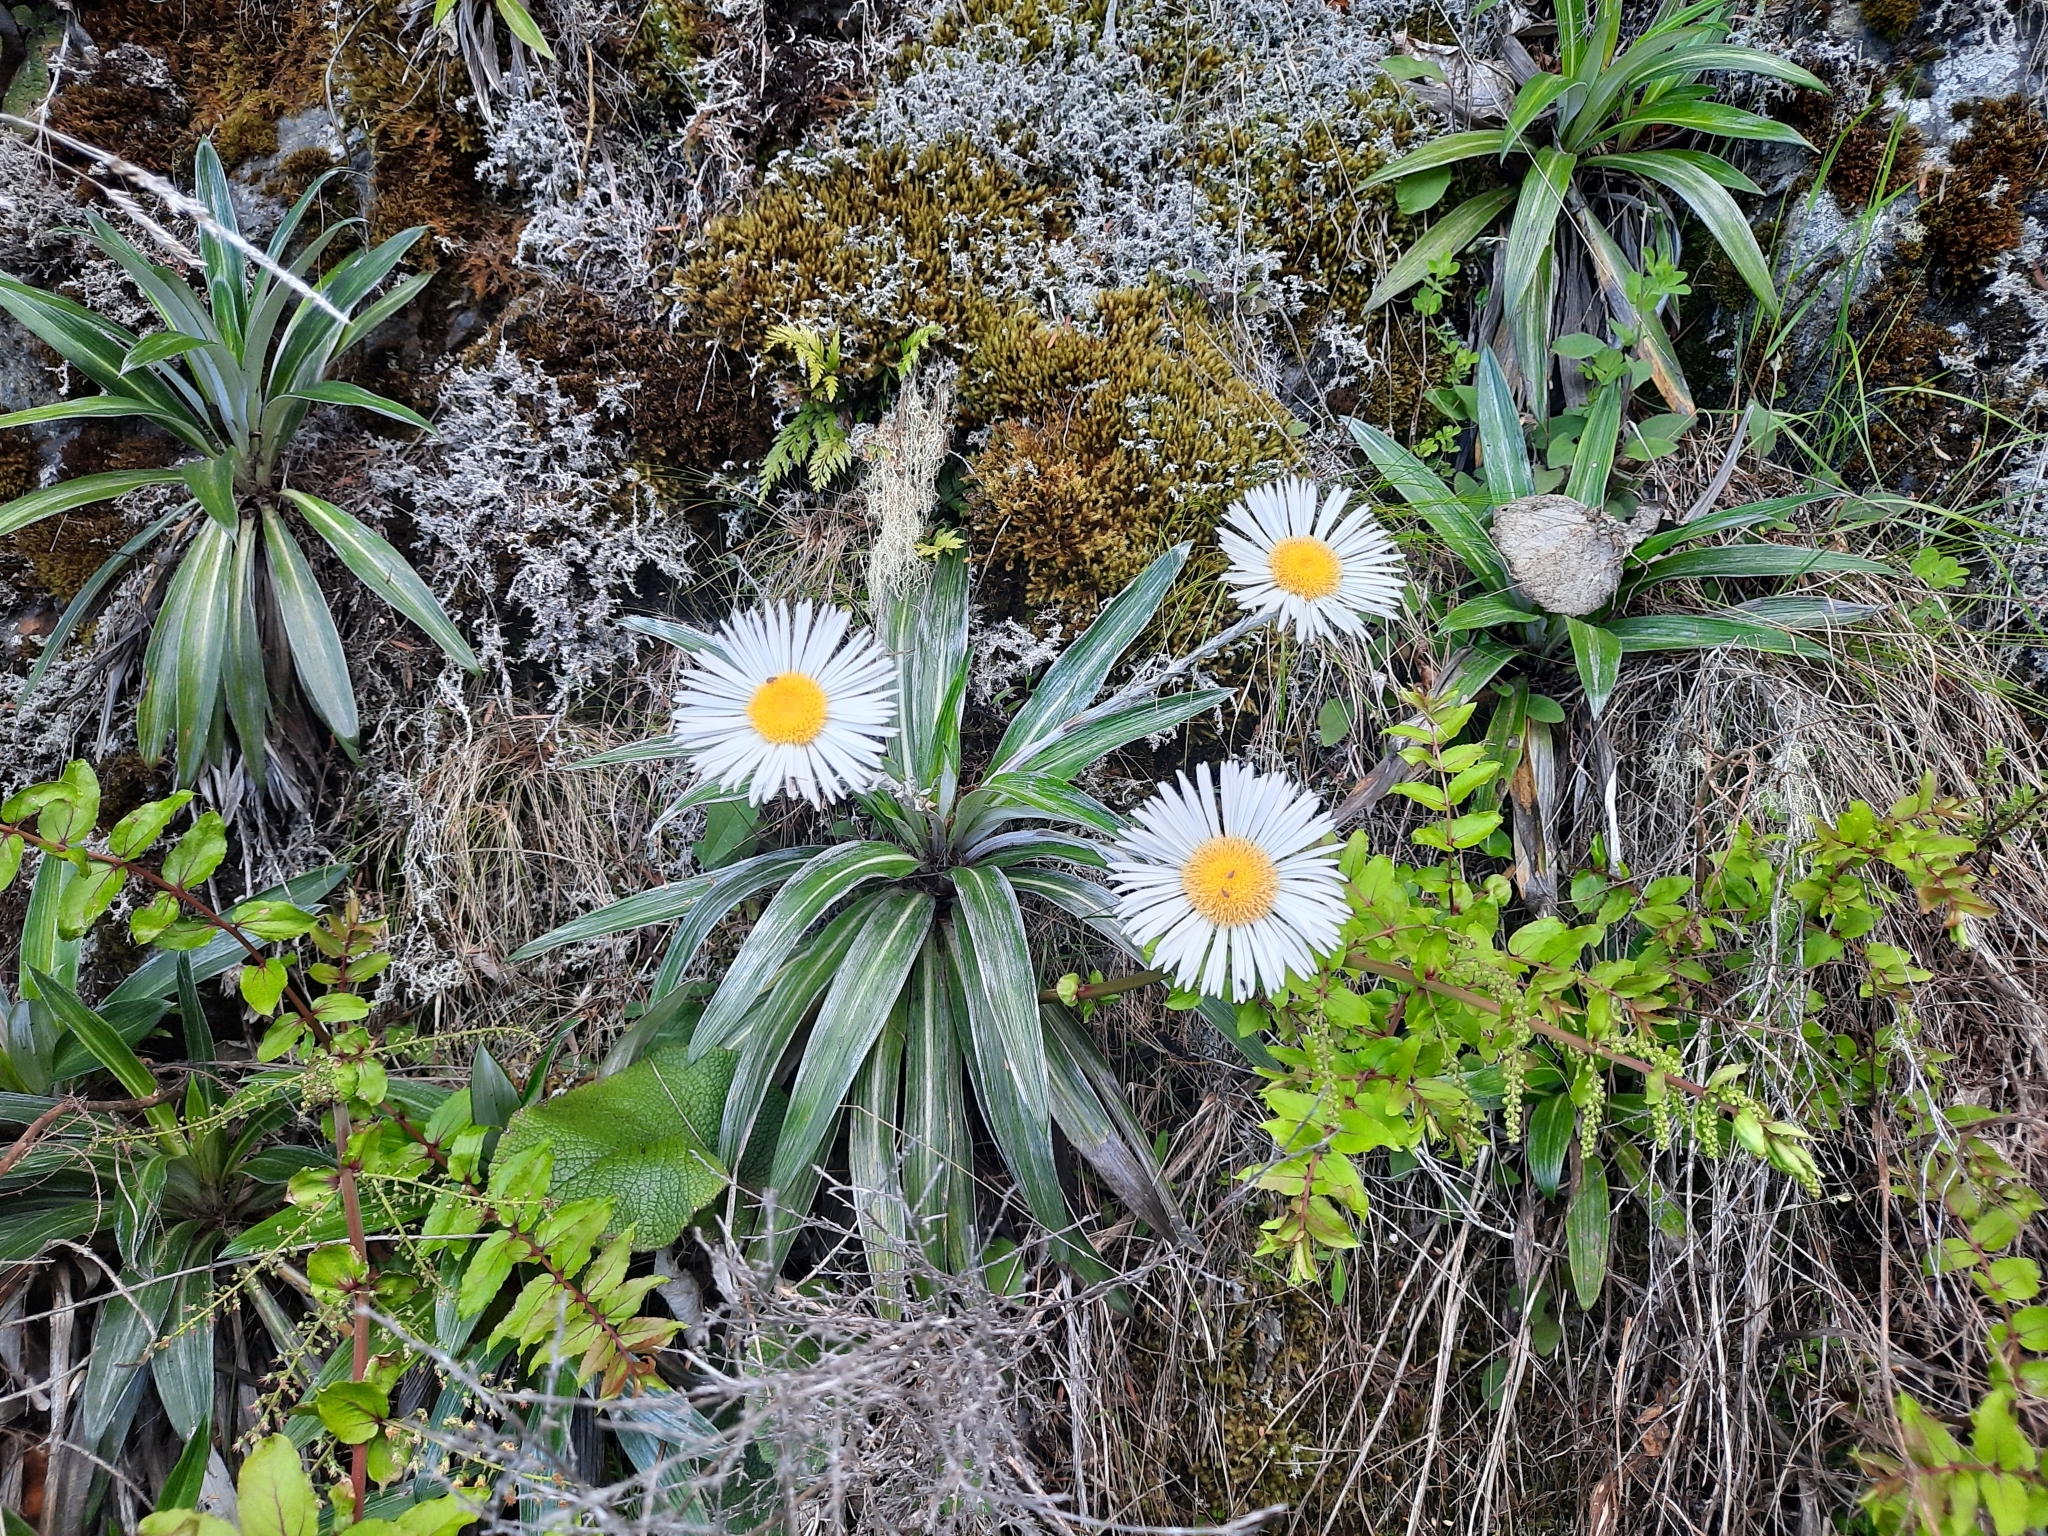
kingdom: Plantae
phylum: Tracheophyta
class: Magnoliopsida
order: Asterales
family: Asteraceae
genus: Celmisia
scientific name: Celmisia monroi
